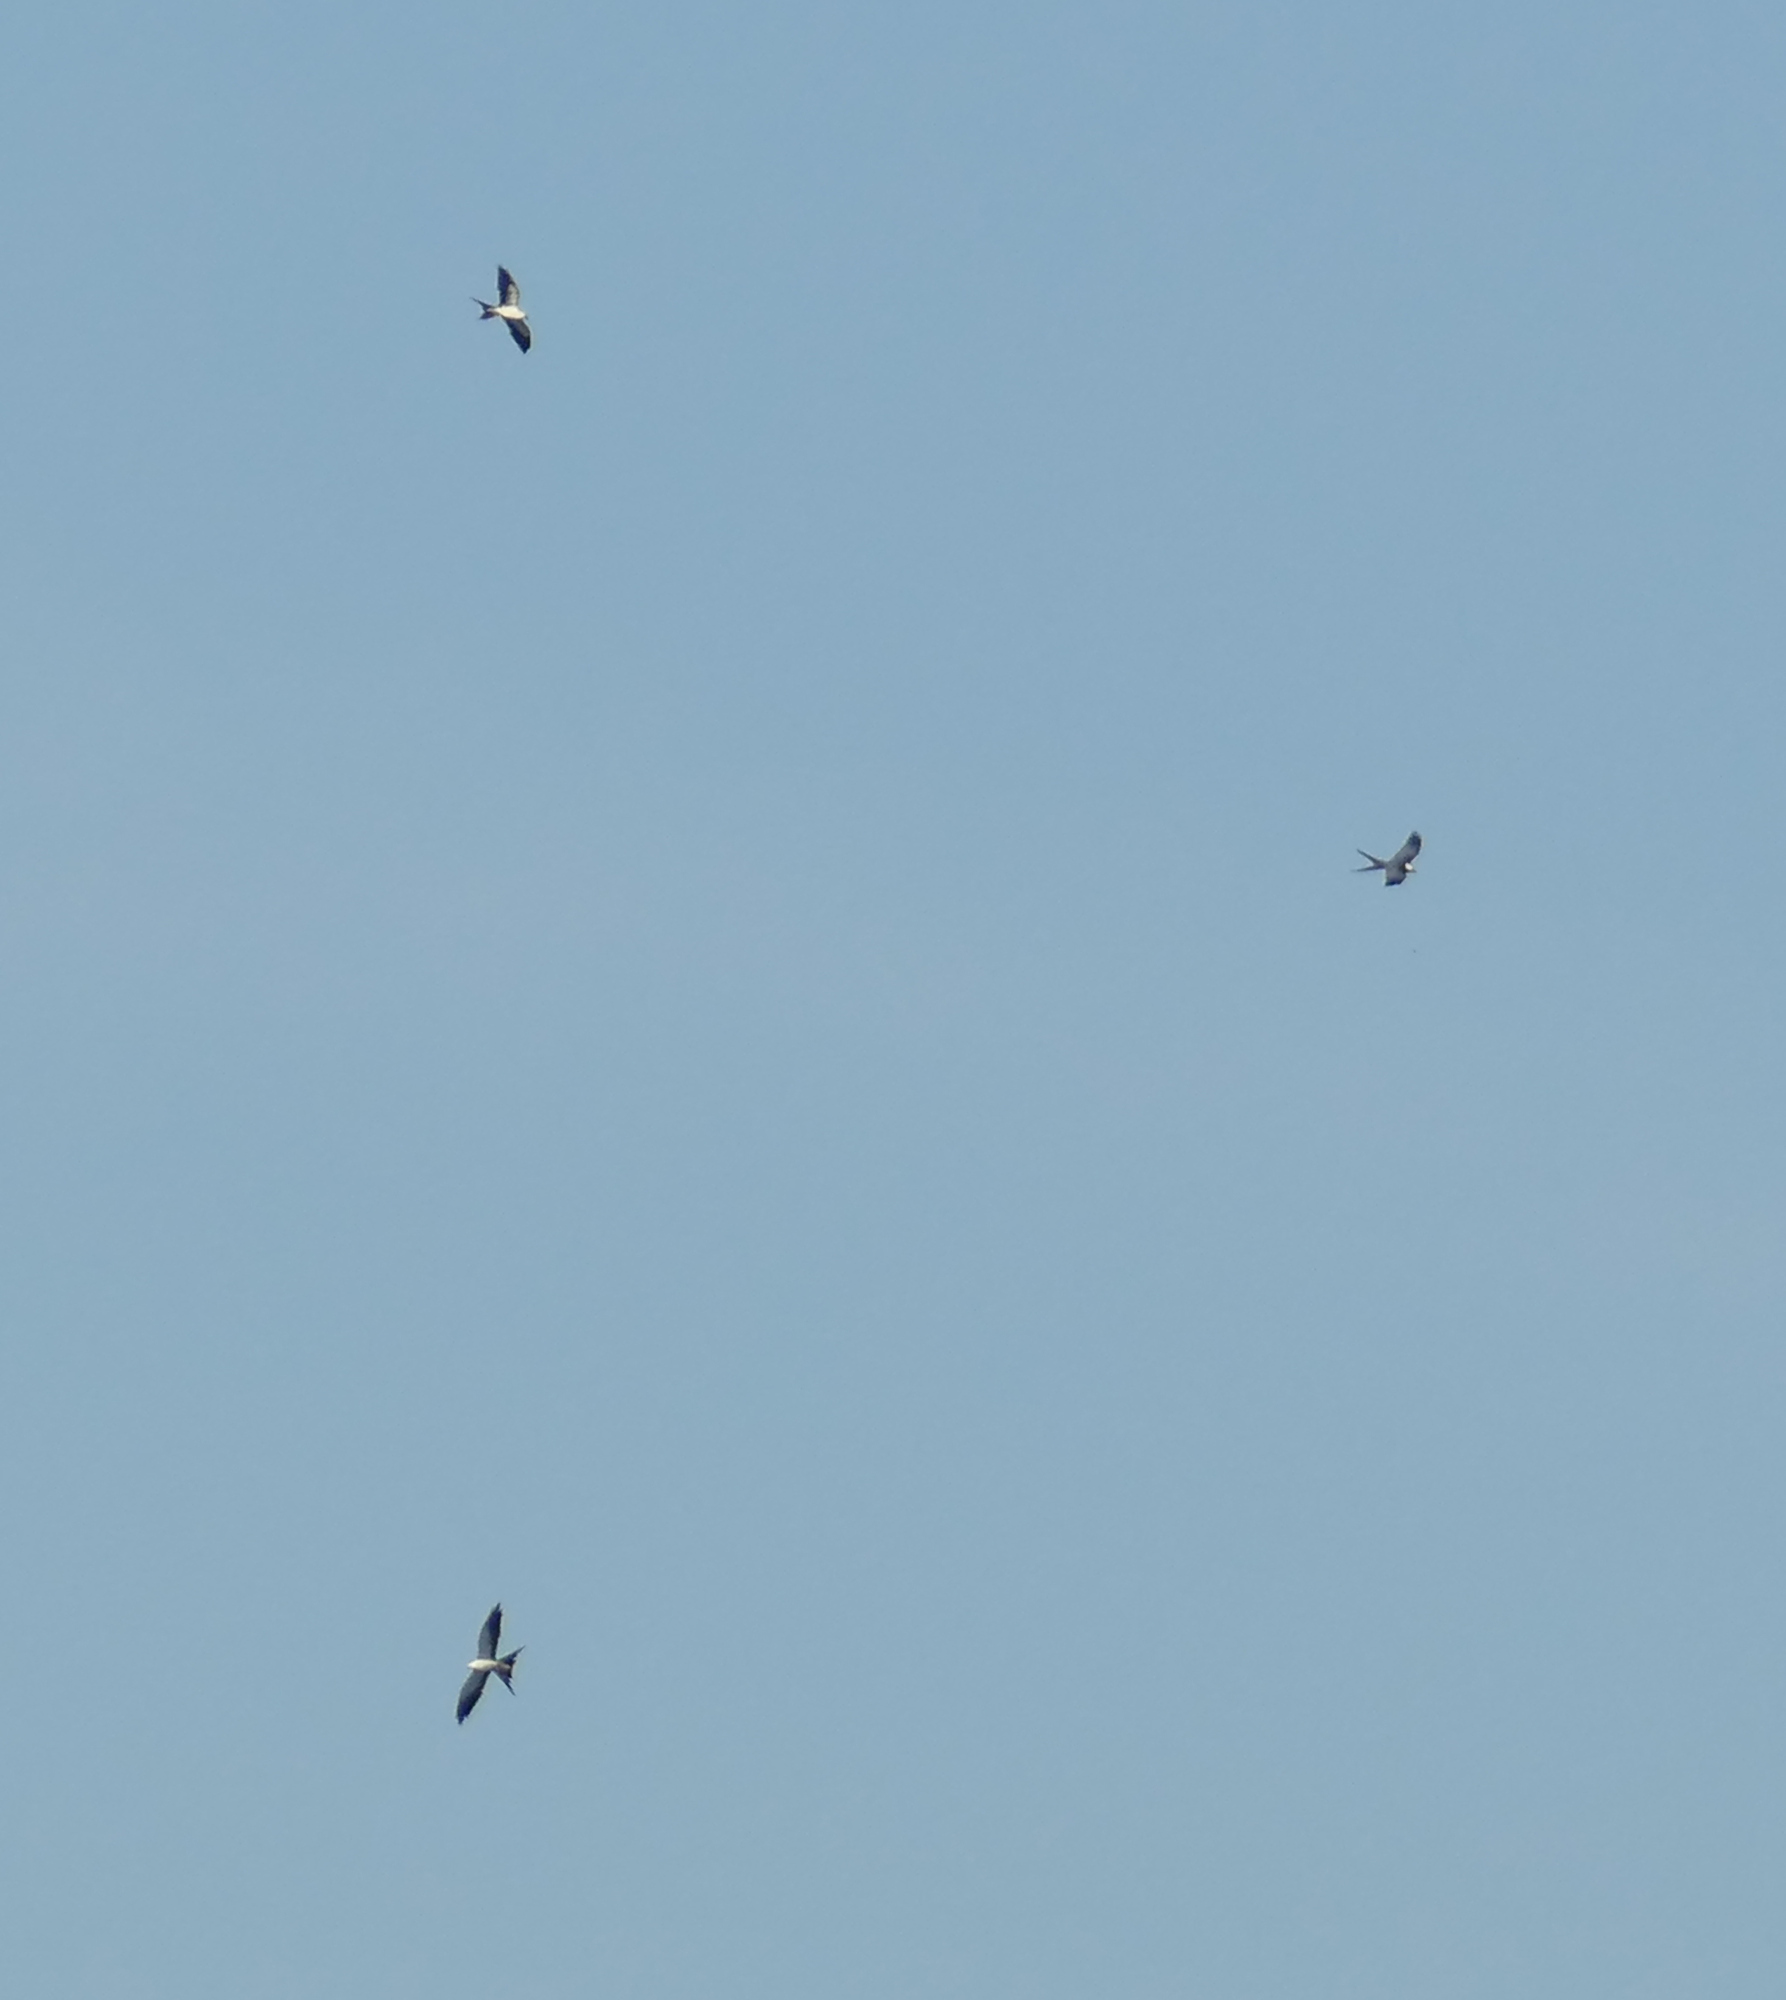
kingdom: Animalia
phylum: Chordata
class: Aves
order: Accipitriformes
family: Accipitridae
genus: Elanoides
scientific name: Elanoides forficatus
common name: Swallow-tailed kite
